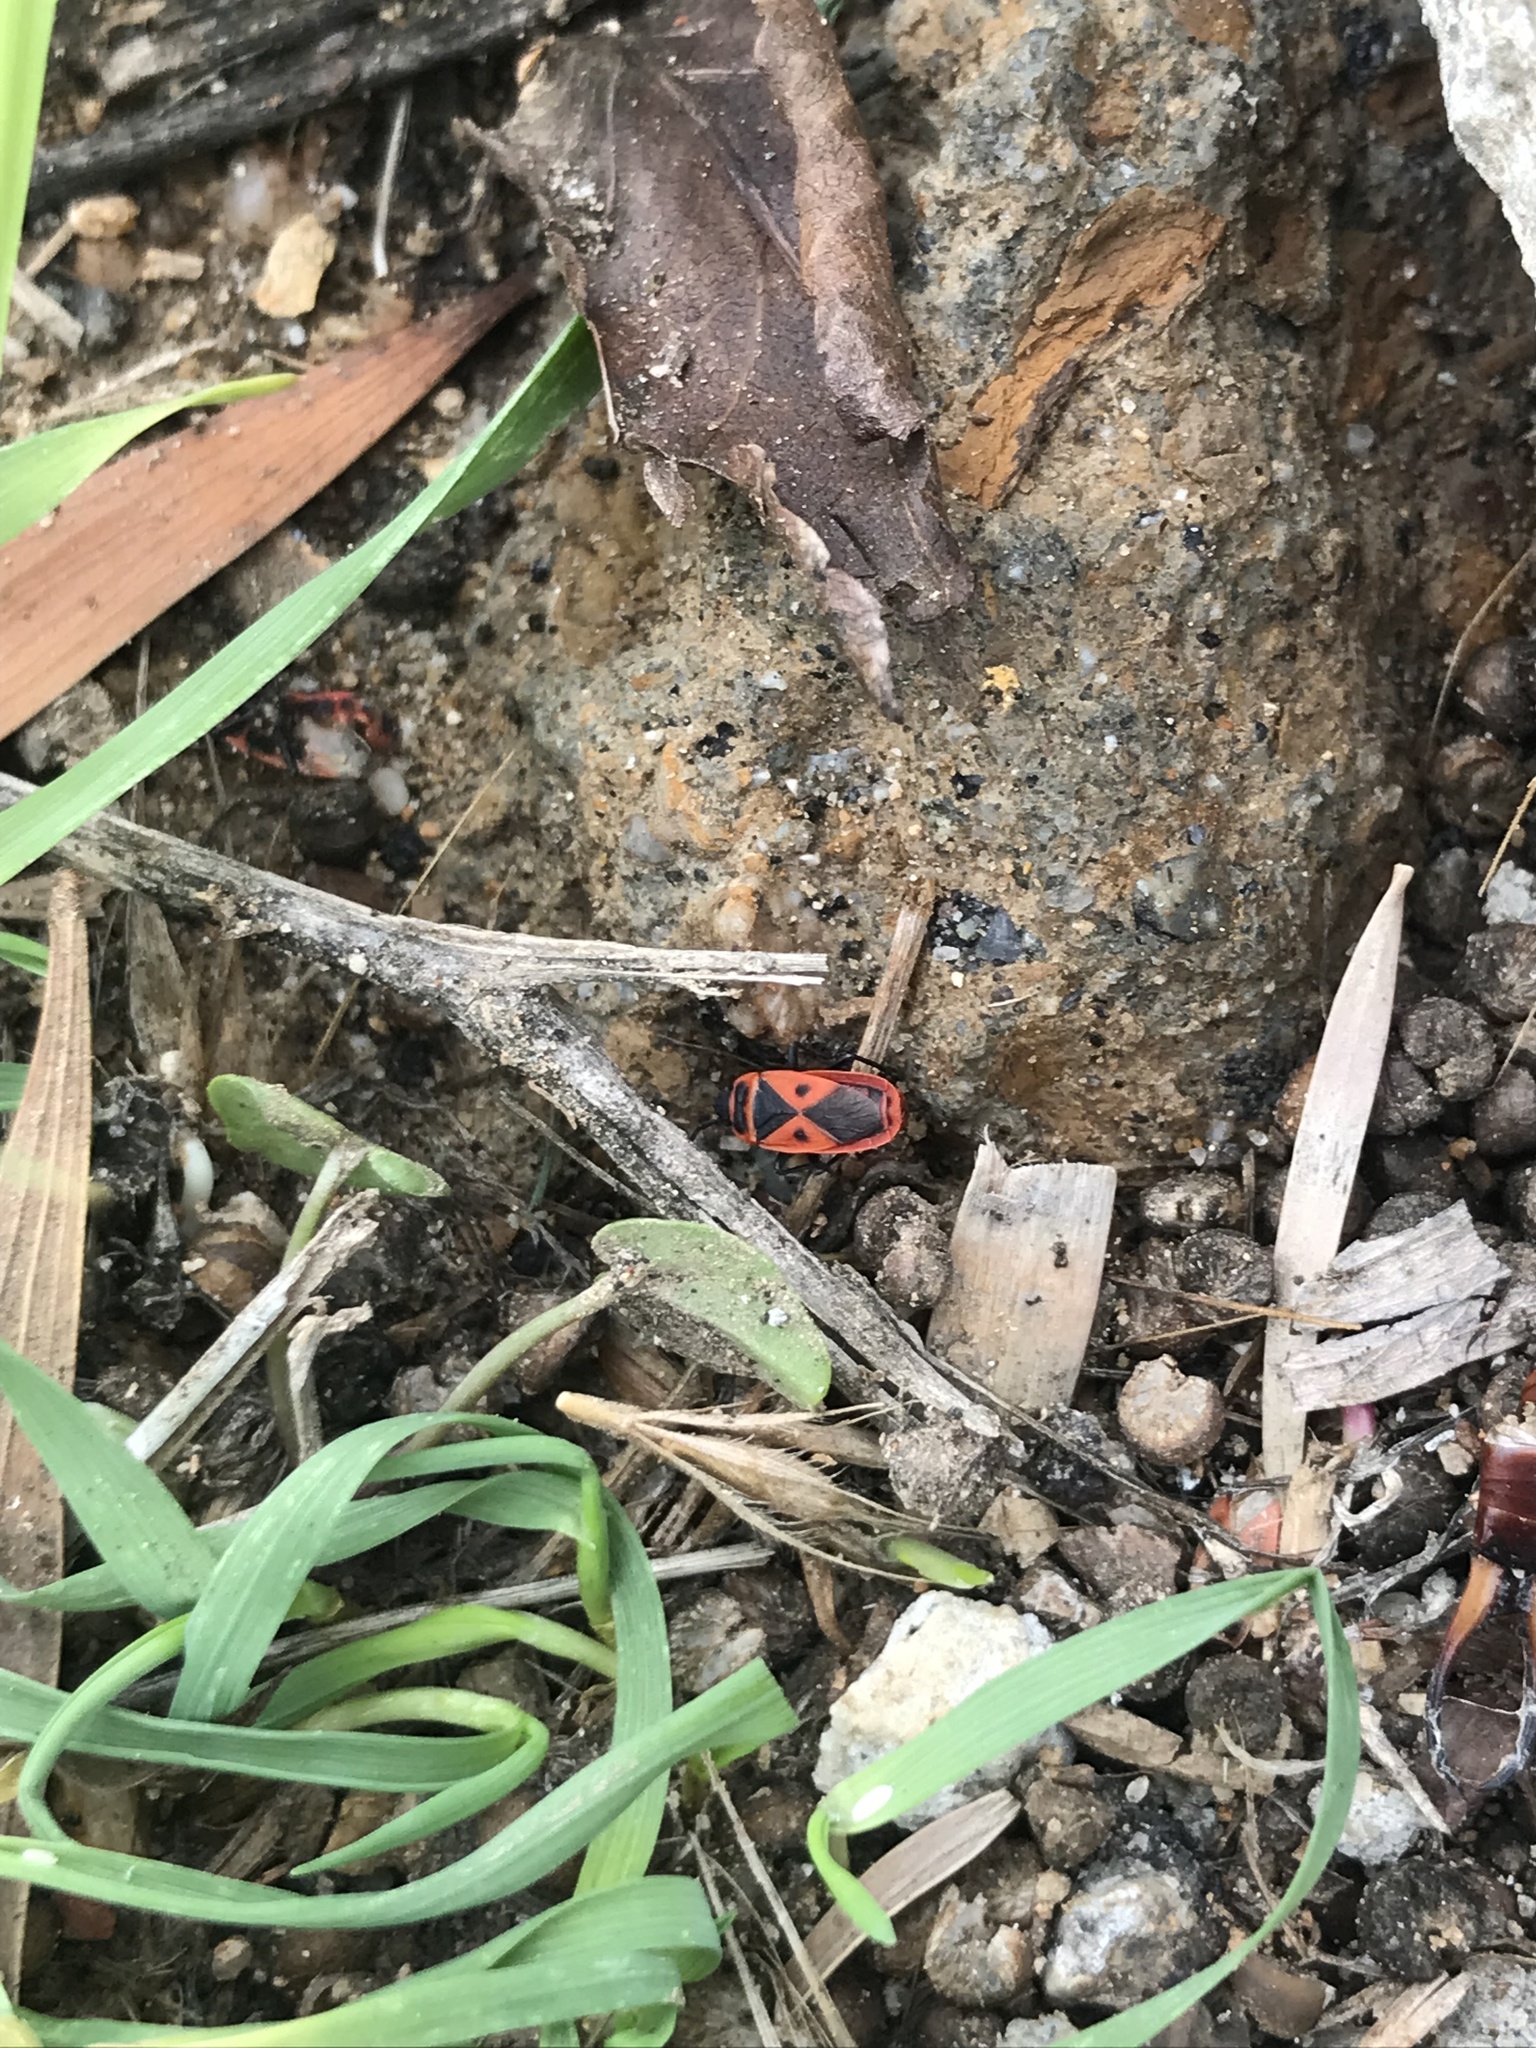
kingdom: Animalia
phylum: Arthropoda
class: Insecta
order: Hemiptera
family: Pyrrhocoridae
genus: Scantius
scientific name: Scantius aegyptius
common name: Red bug
